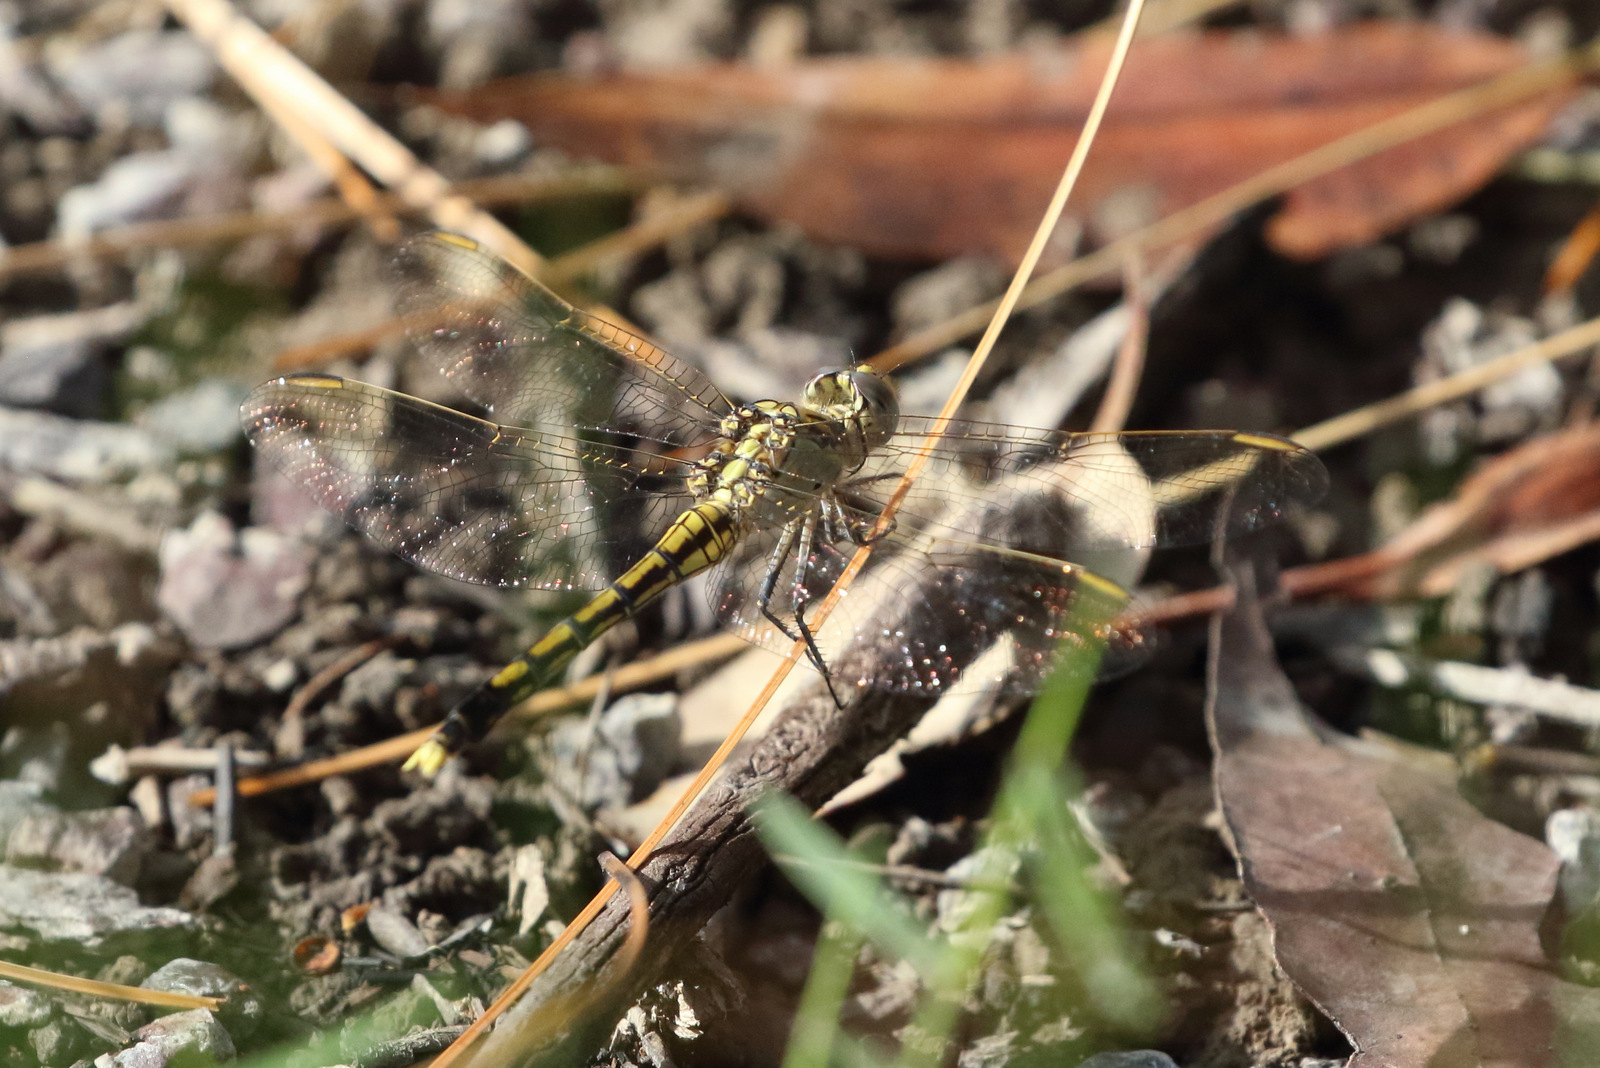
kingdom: Animalia
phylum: Arthropoda
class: Insecta
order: Odonata
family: Libellulidae
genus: Orthetrum
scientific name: Orthetrum caledonicum
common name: Blue skimmer
